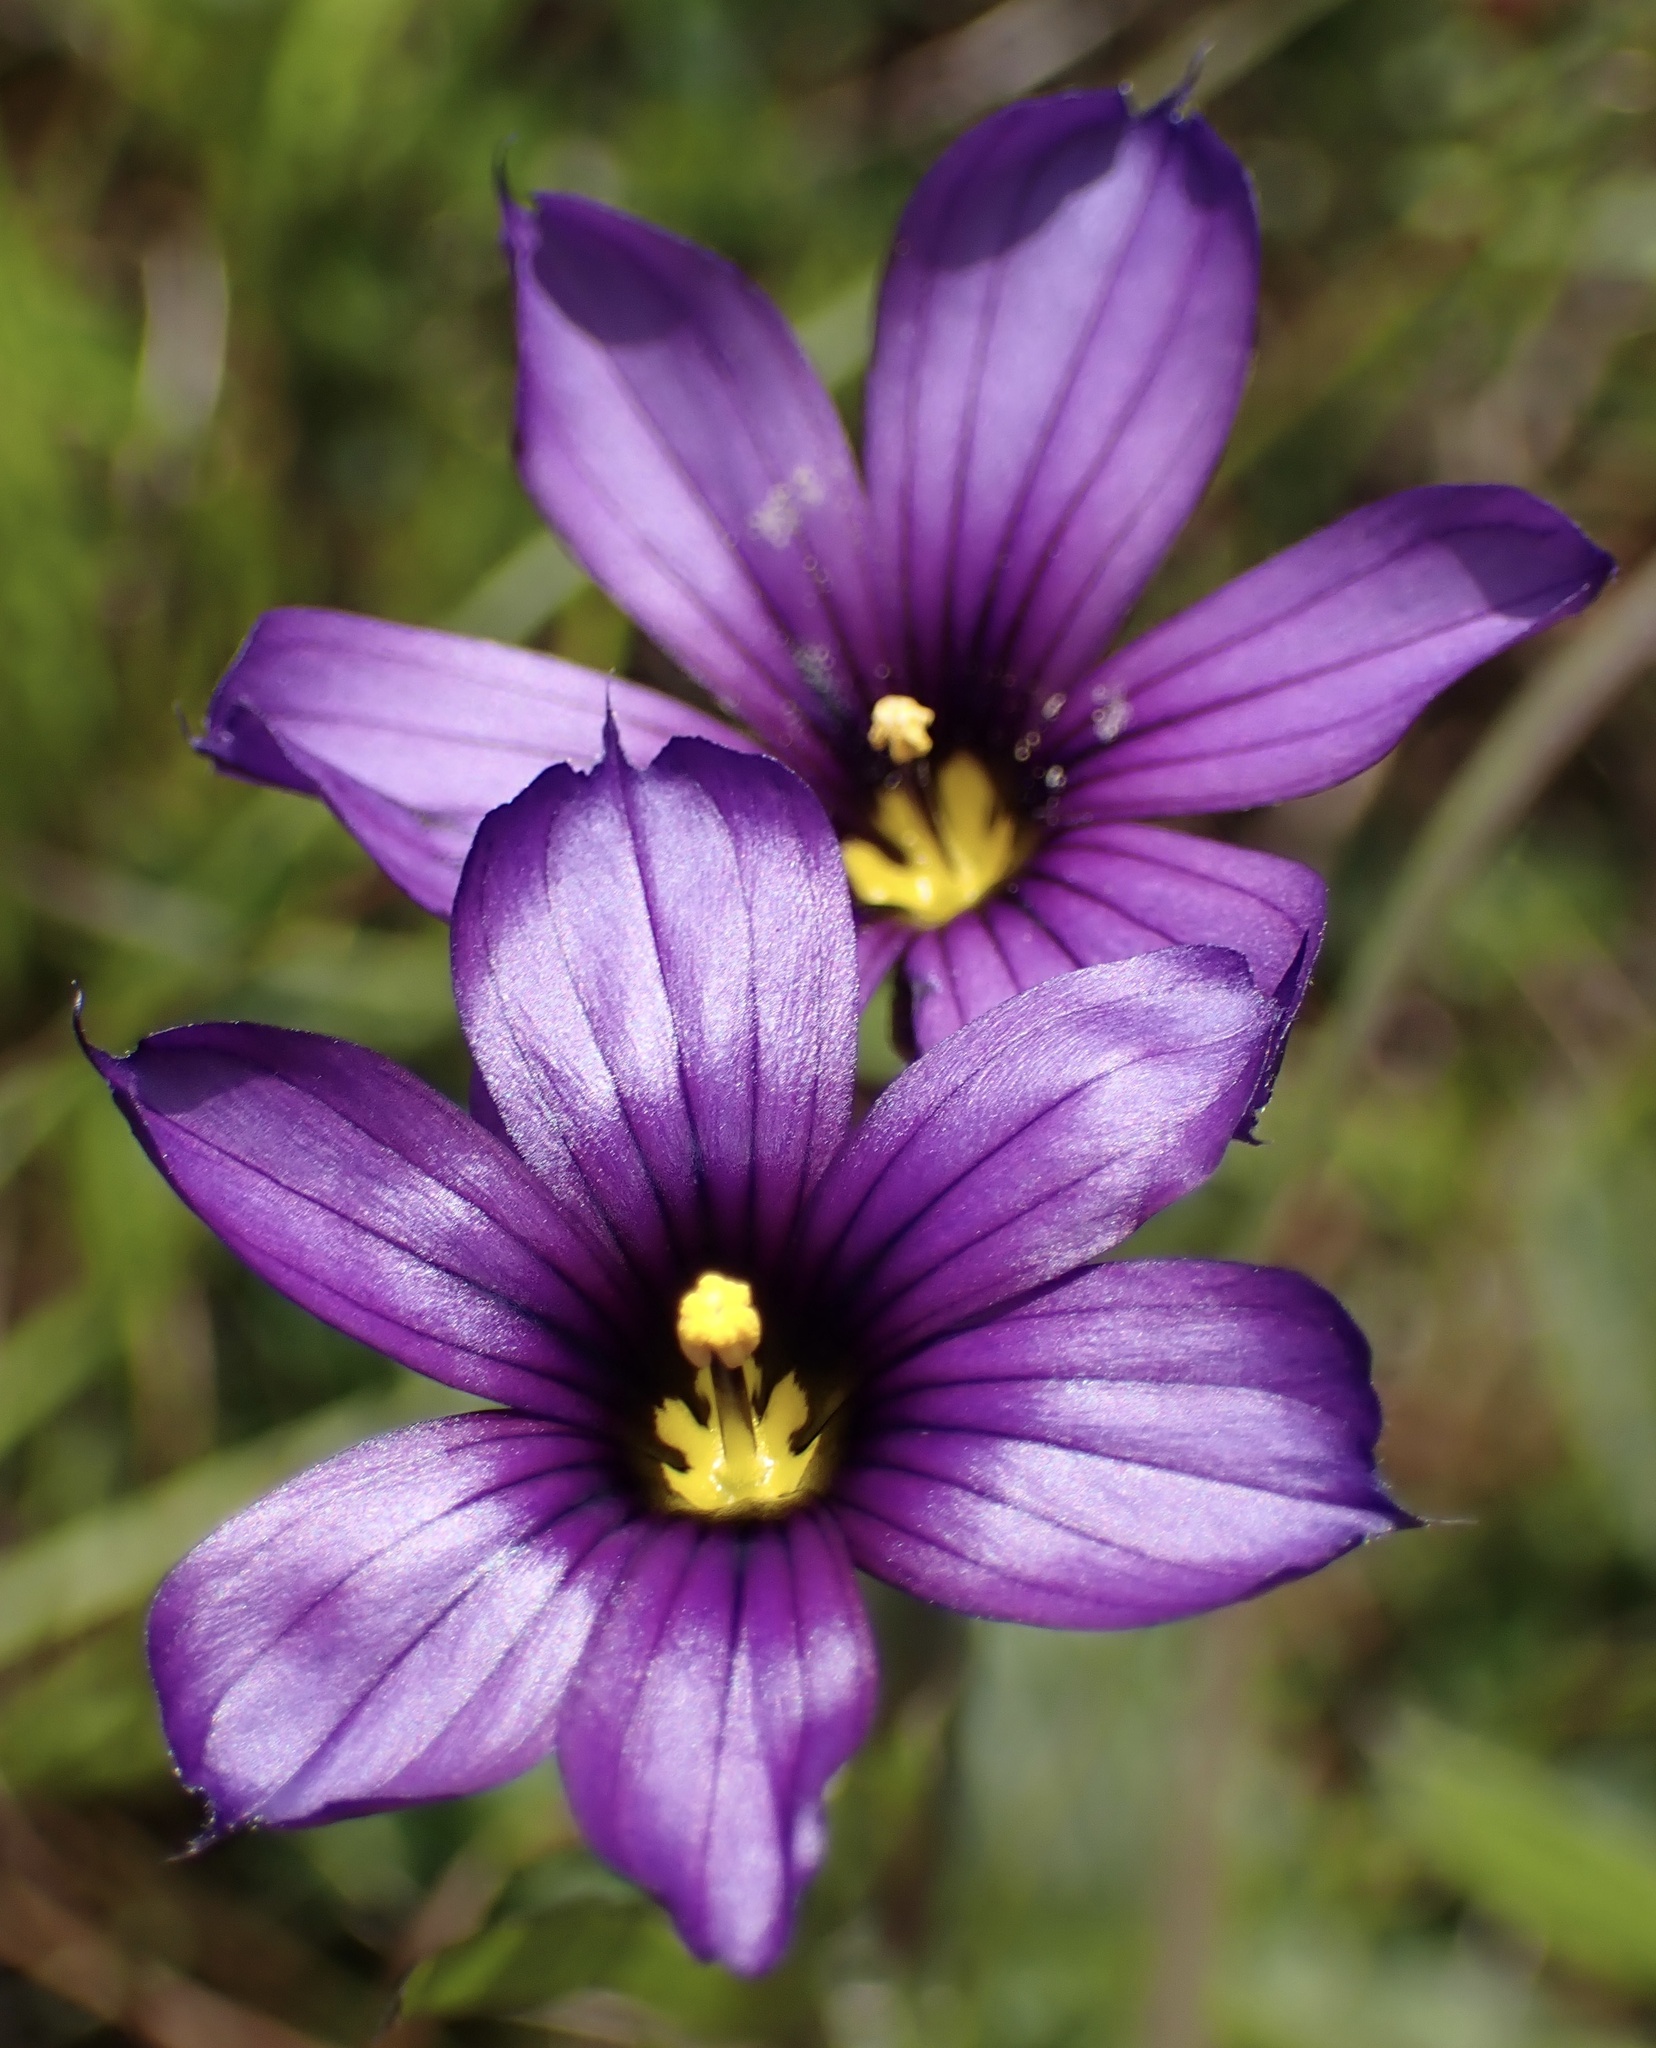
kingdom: Plantae
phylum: Tracheophyta
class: Liliopsida
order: Asparagales
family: Iridaceae
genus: Sisyrinchium
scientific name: Sisyrinchium bellum
